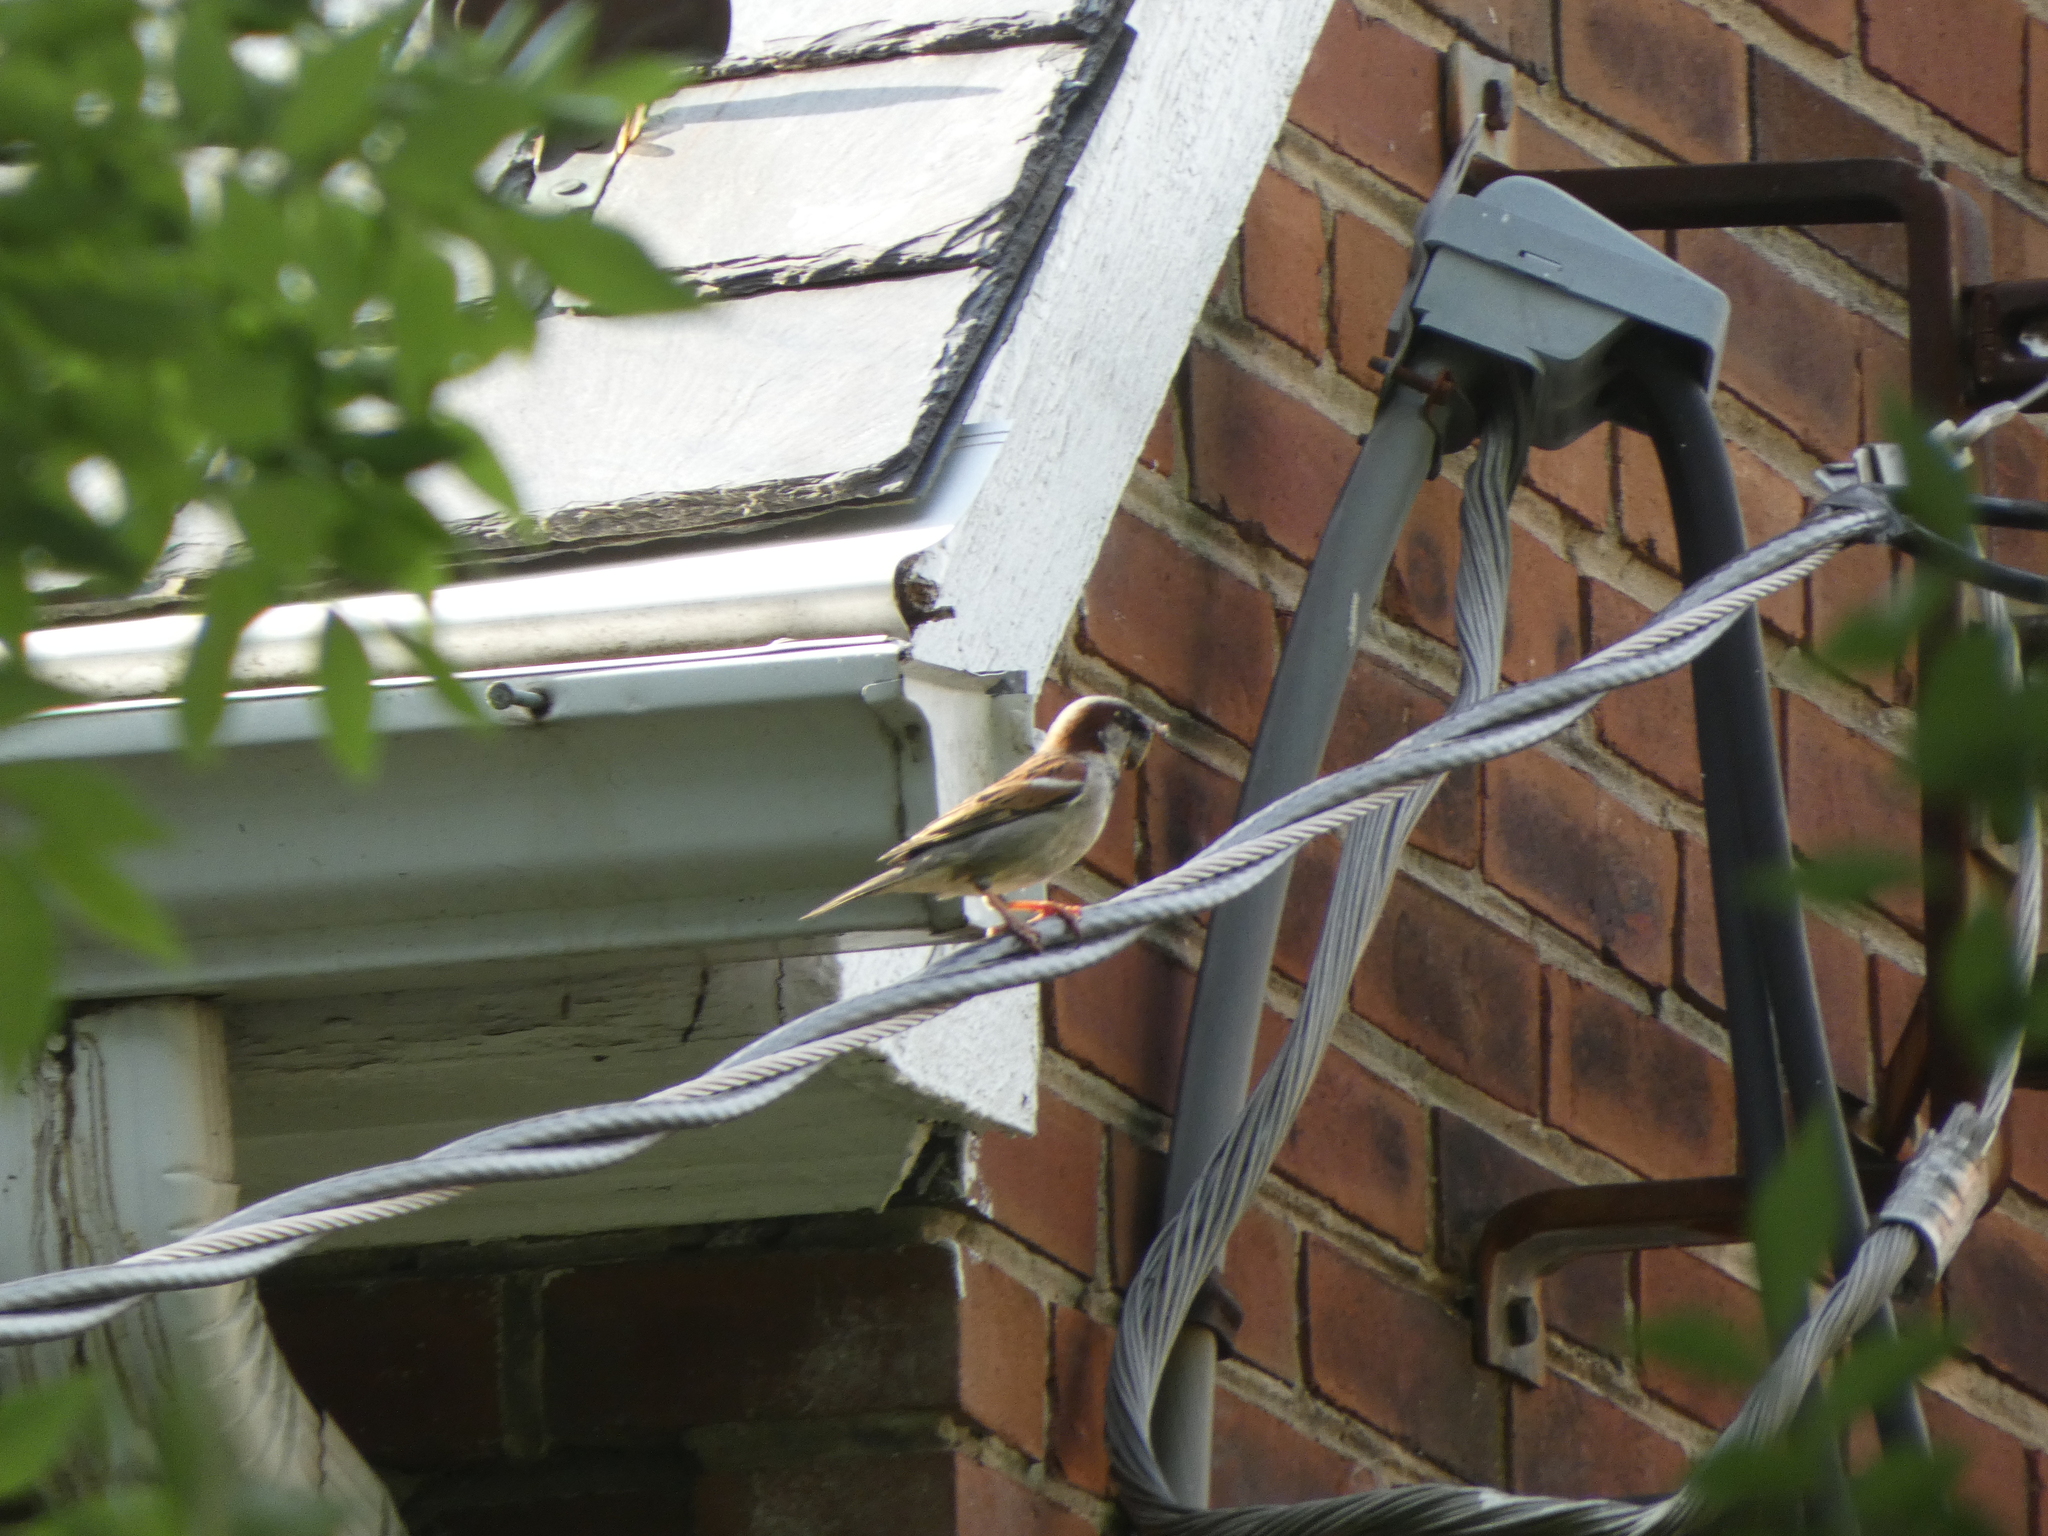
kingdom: Animalia
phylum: Chordata
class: Aves
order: Passeriformes
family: Passeridae
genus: Passer
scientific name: Passer domesticus
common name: House sparrow
